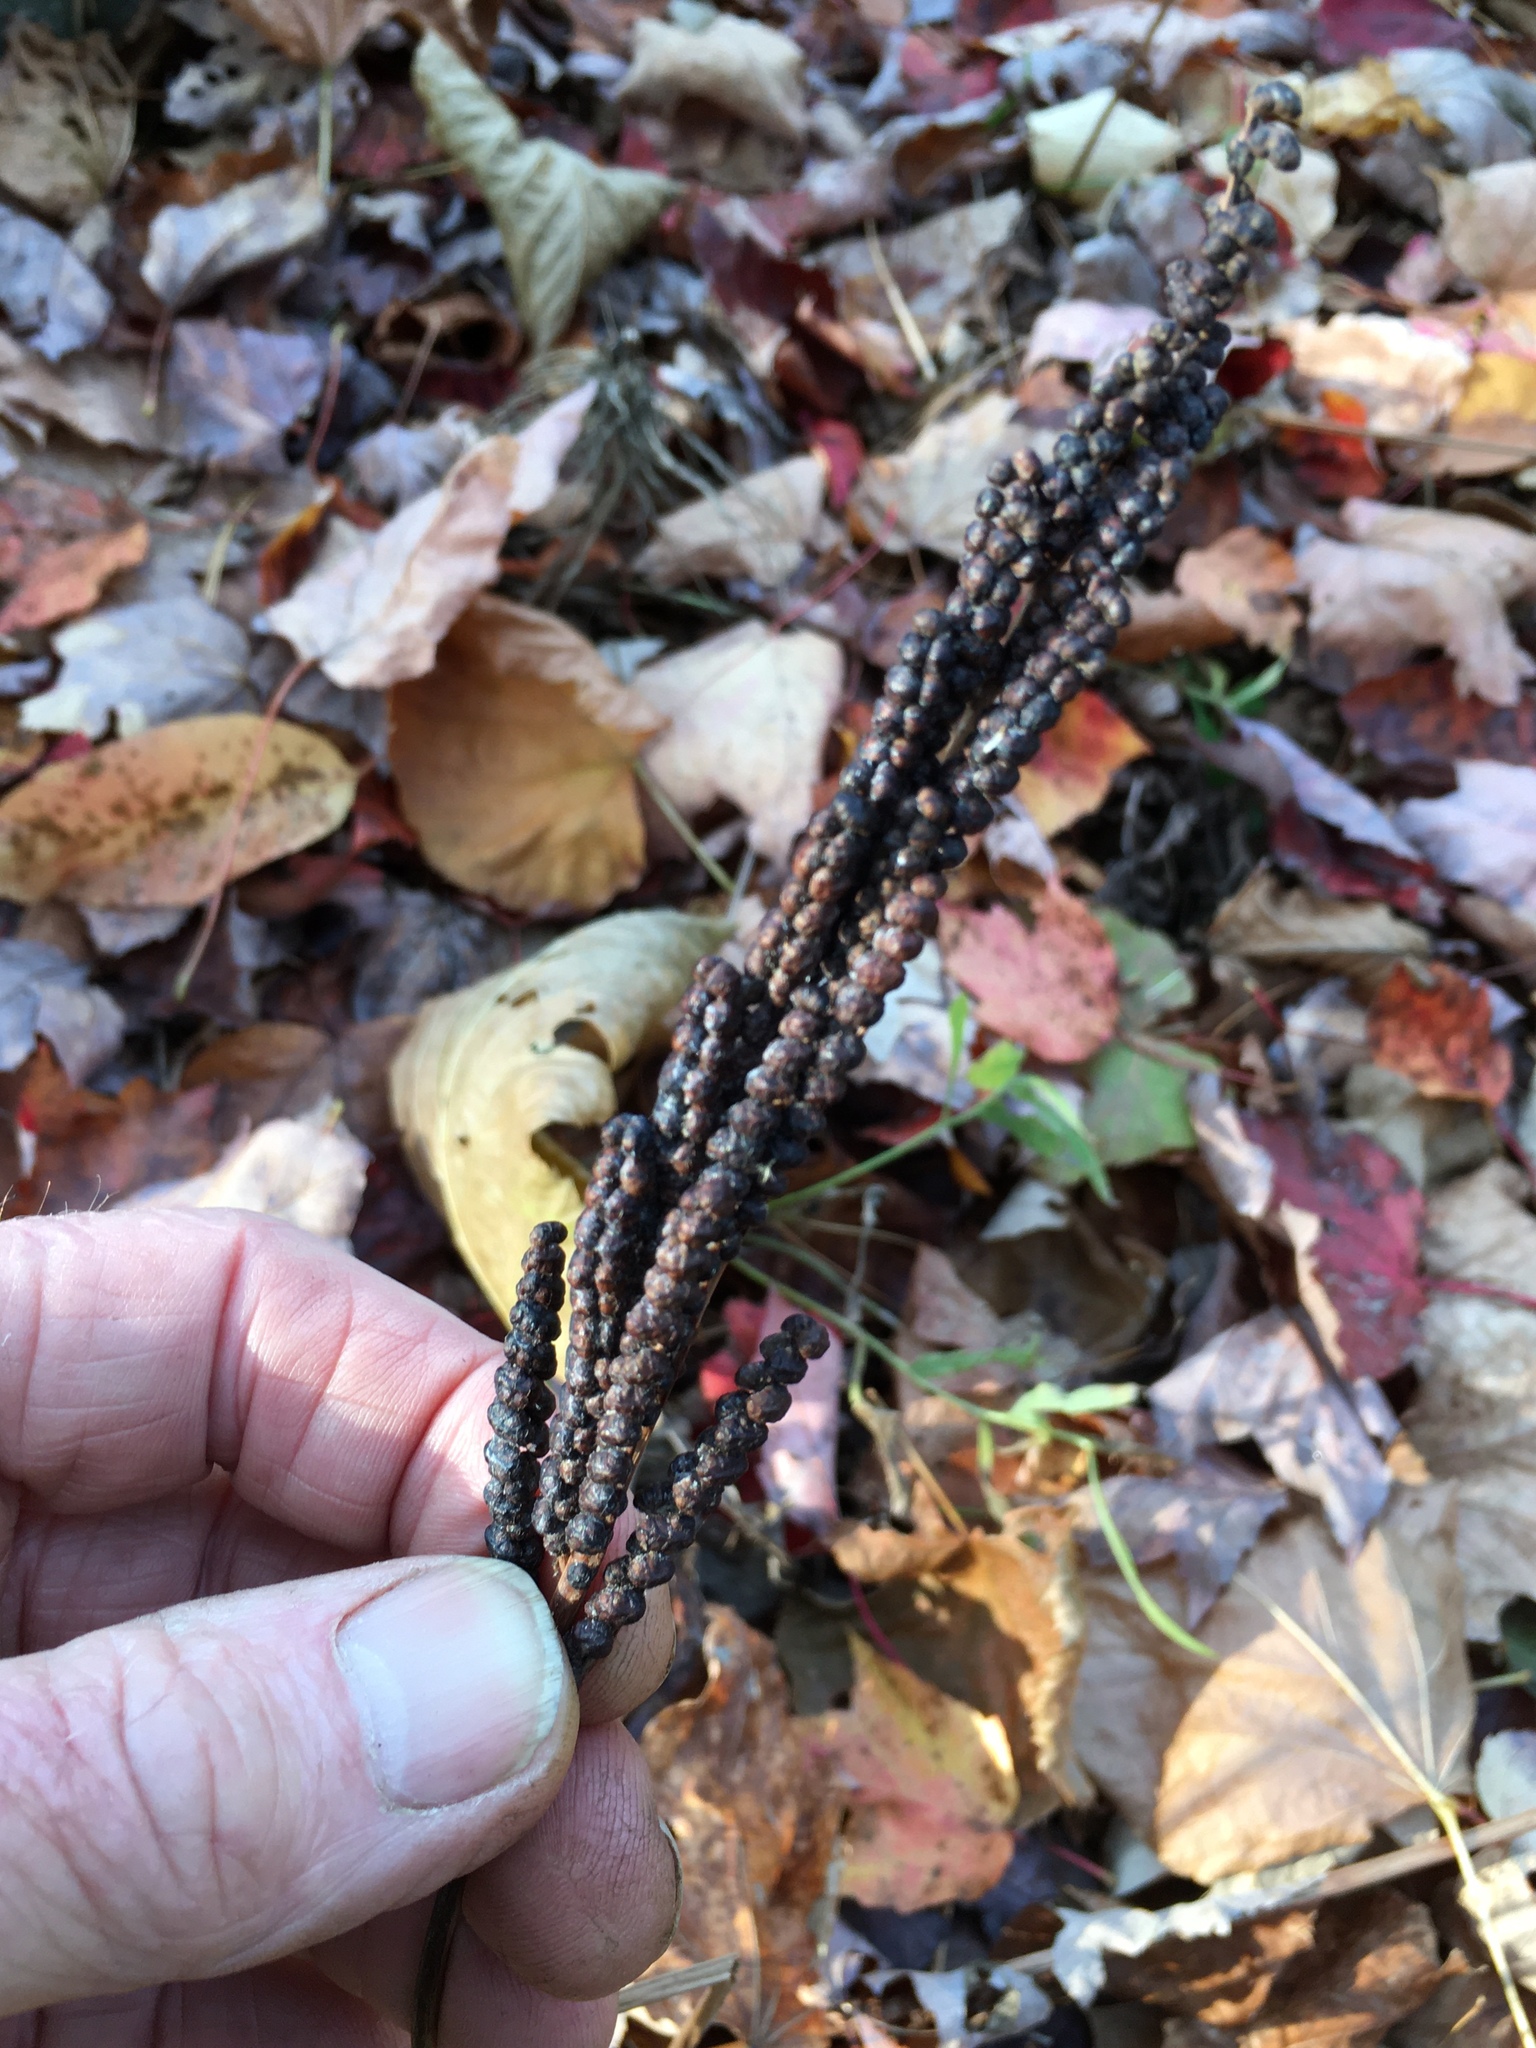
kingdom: Plantae
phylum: Tracheophyta
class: Polypodiopsida
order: Polypodiales
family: Onocleaceae
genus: Onoclea
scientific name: Onoclea sensibilis
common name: Sensitive fern
